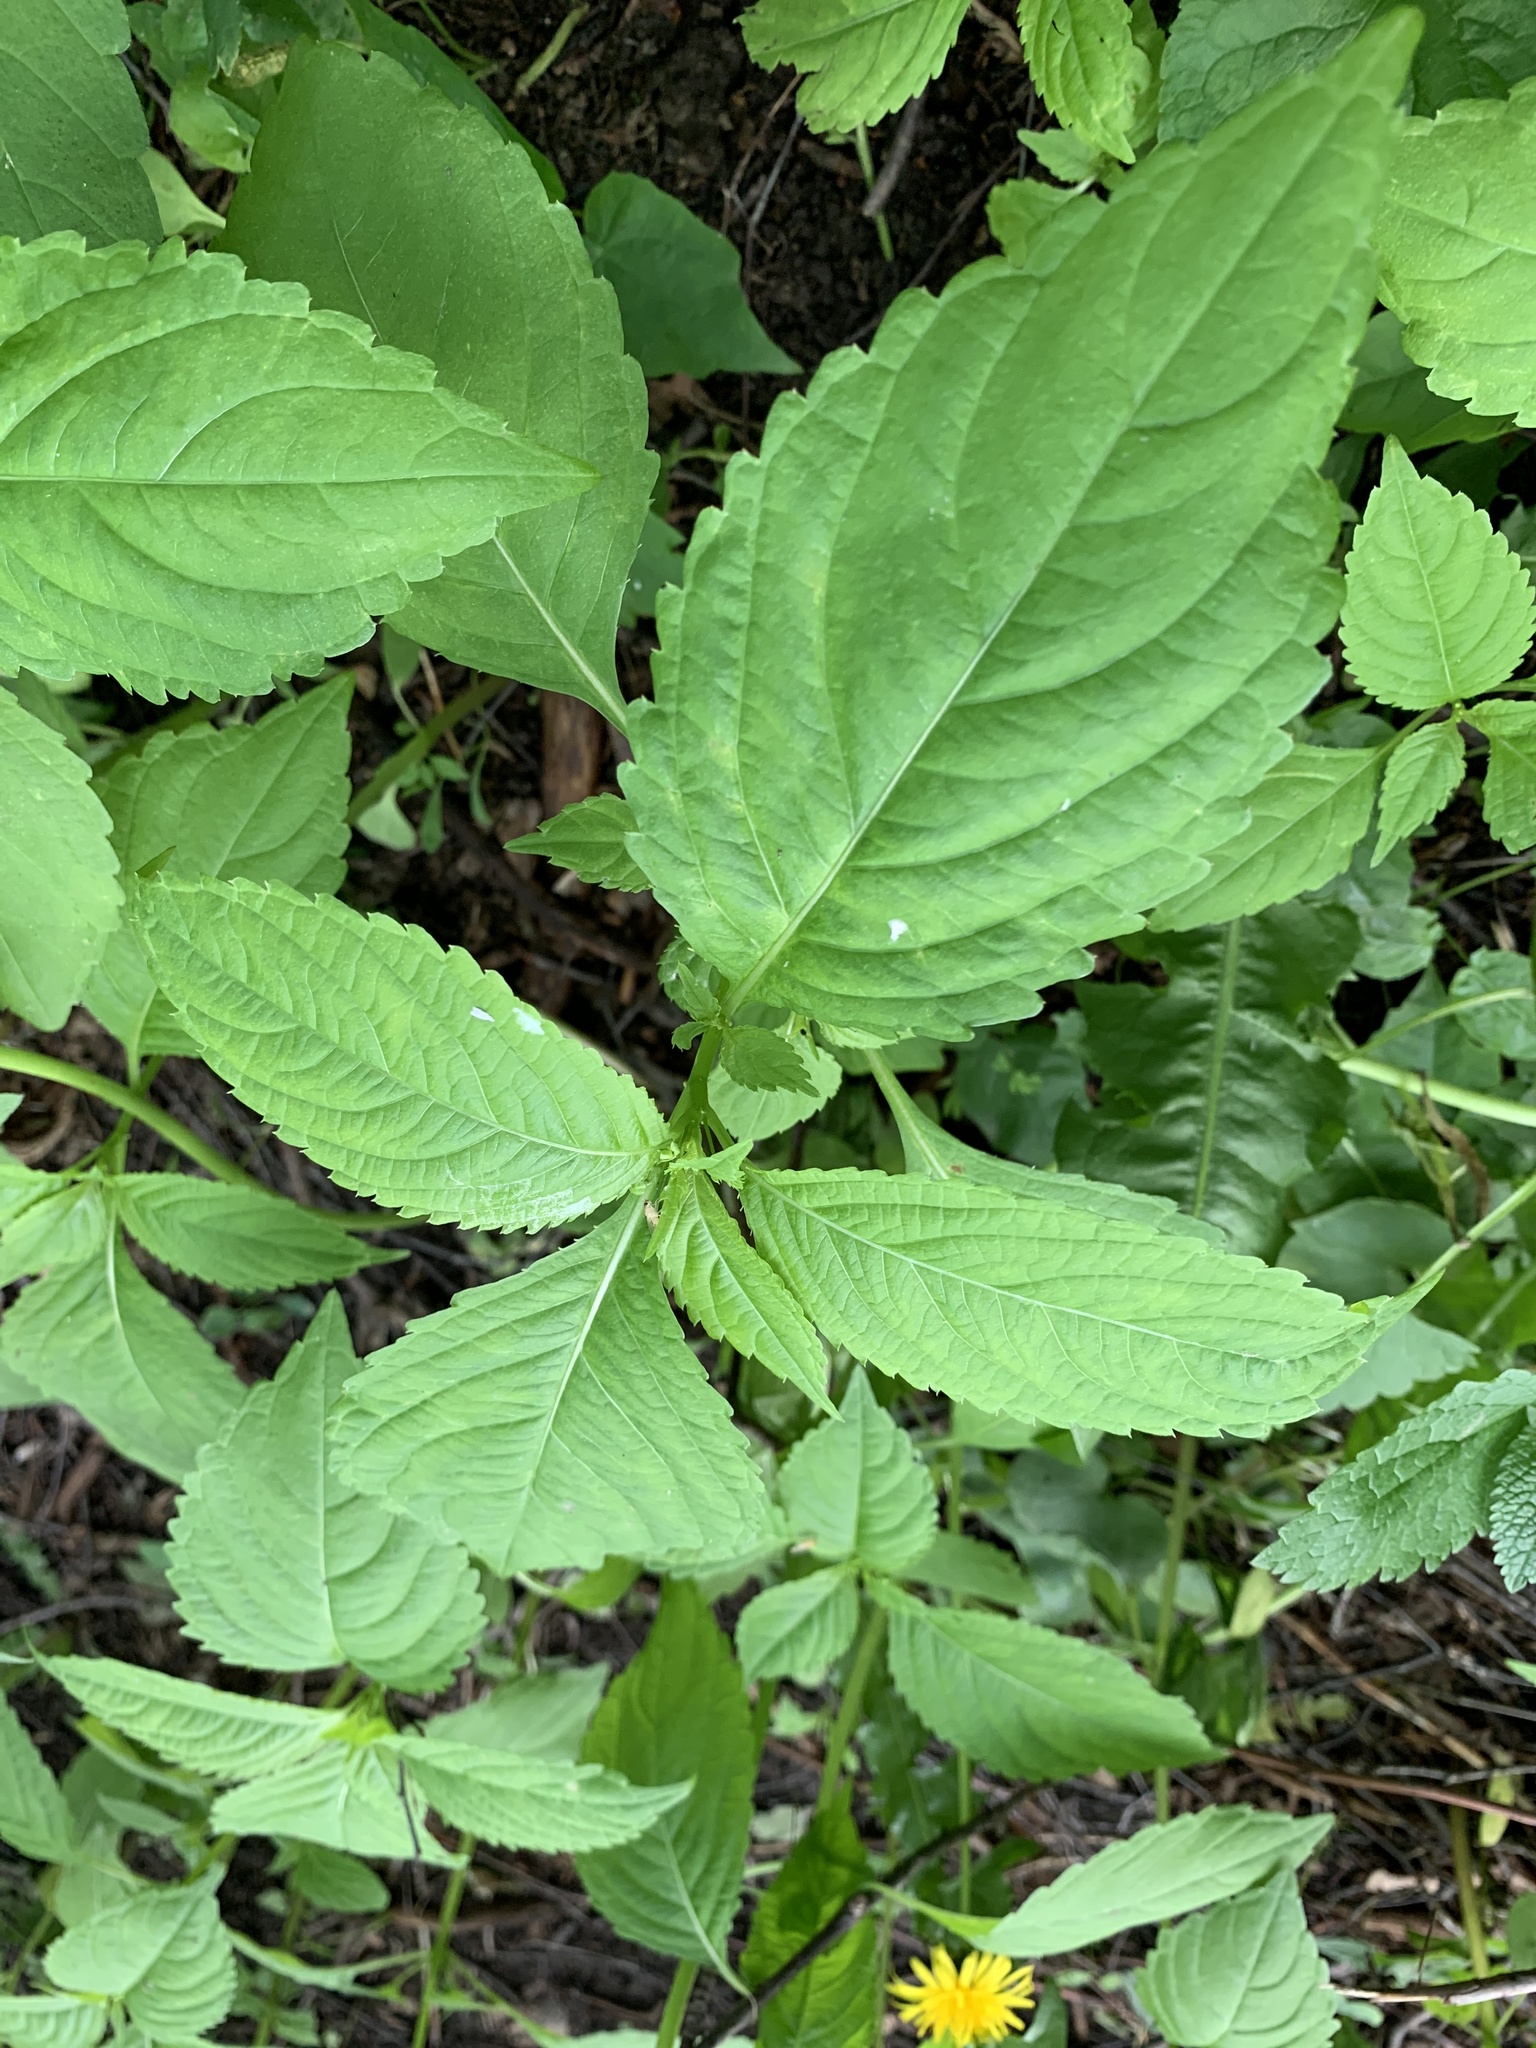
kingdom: Plantae
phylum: Tracheophyta
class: Magnoliopsida
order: Ericales
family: Balsaminaceae
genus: Impatiens
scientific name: Impatiens parviflora
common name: Small balsam
